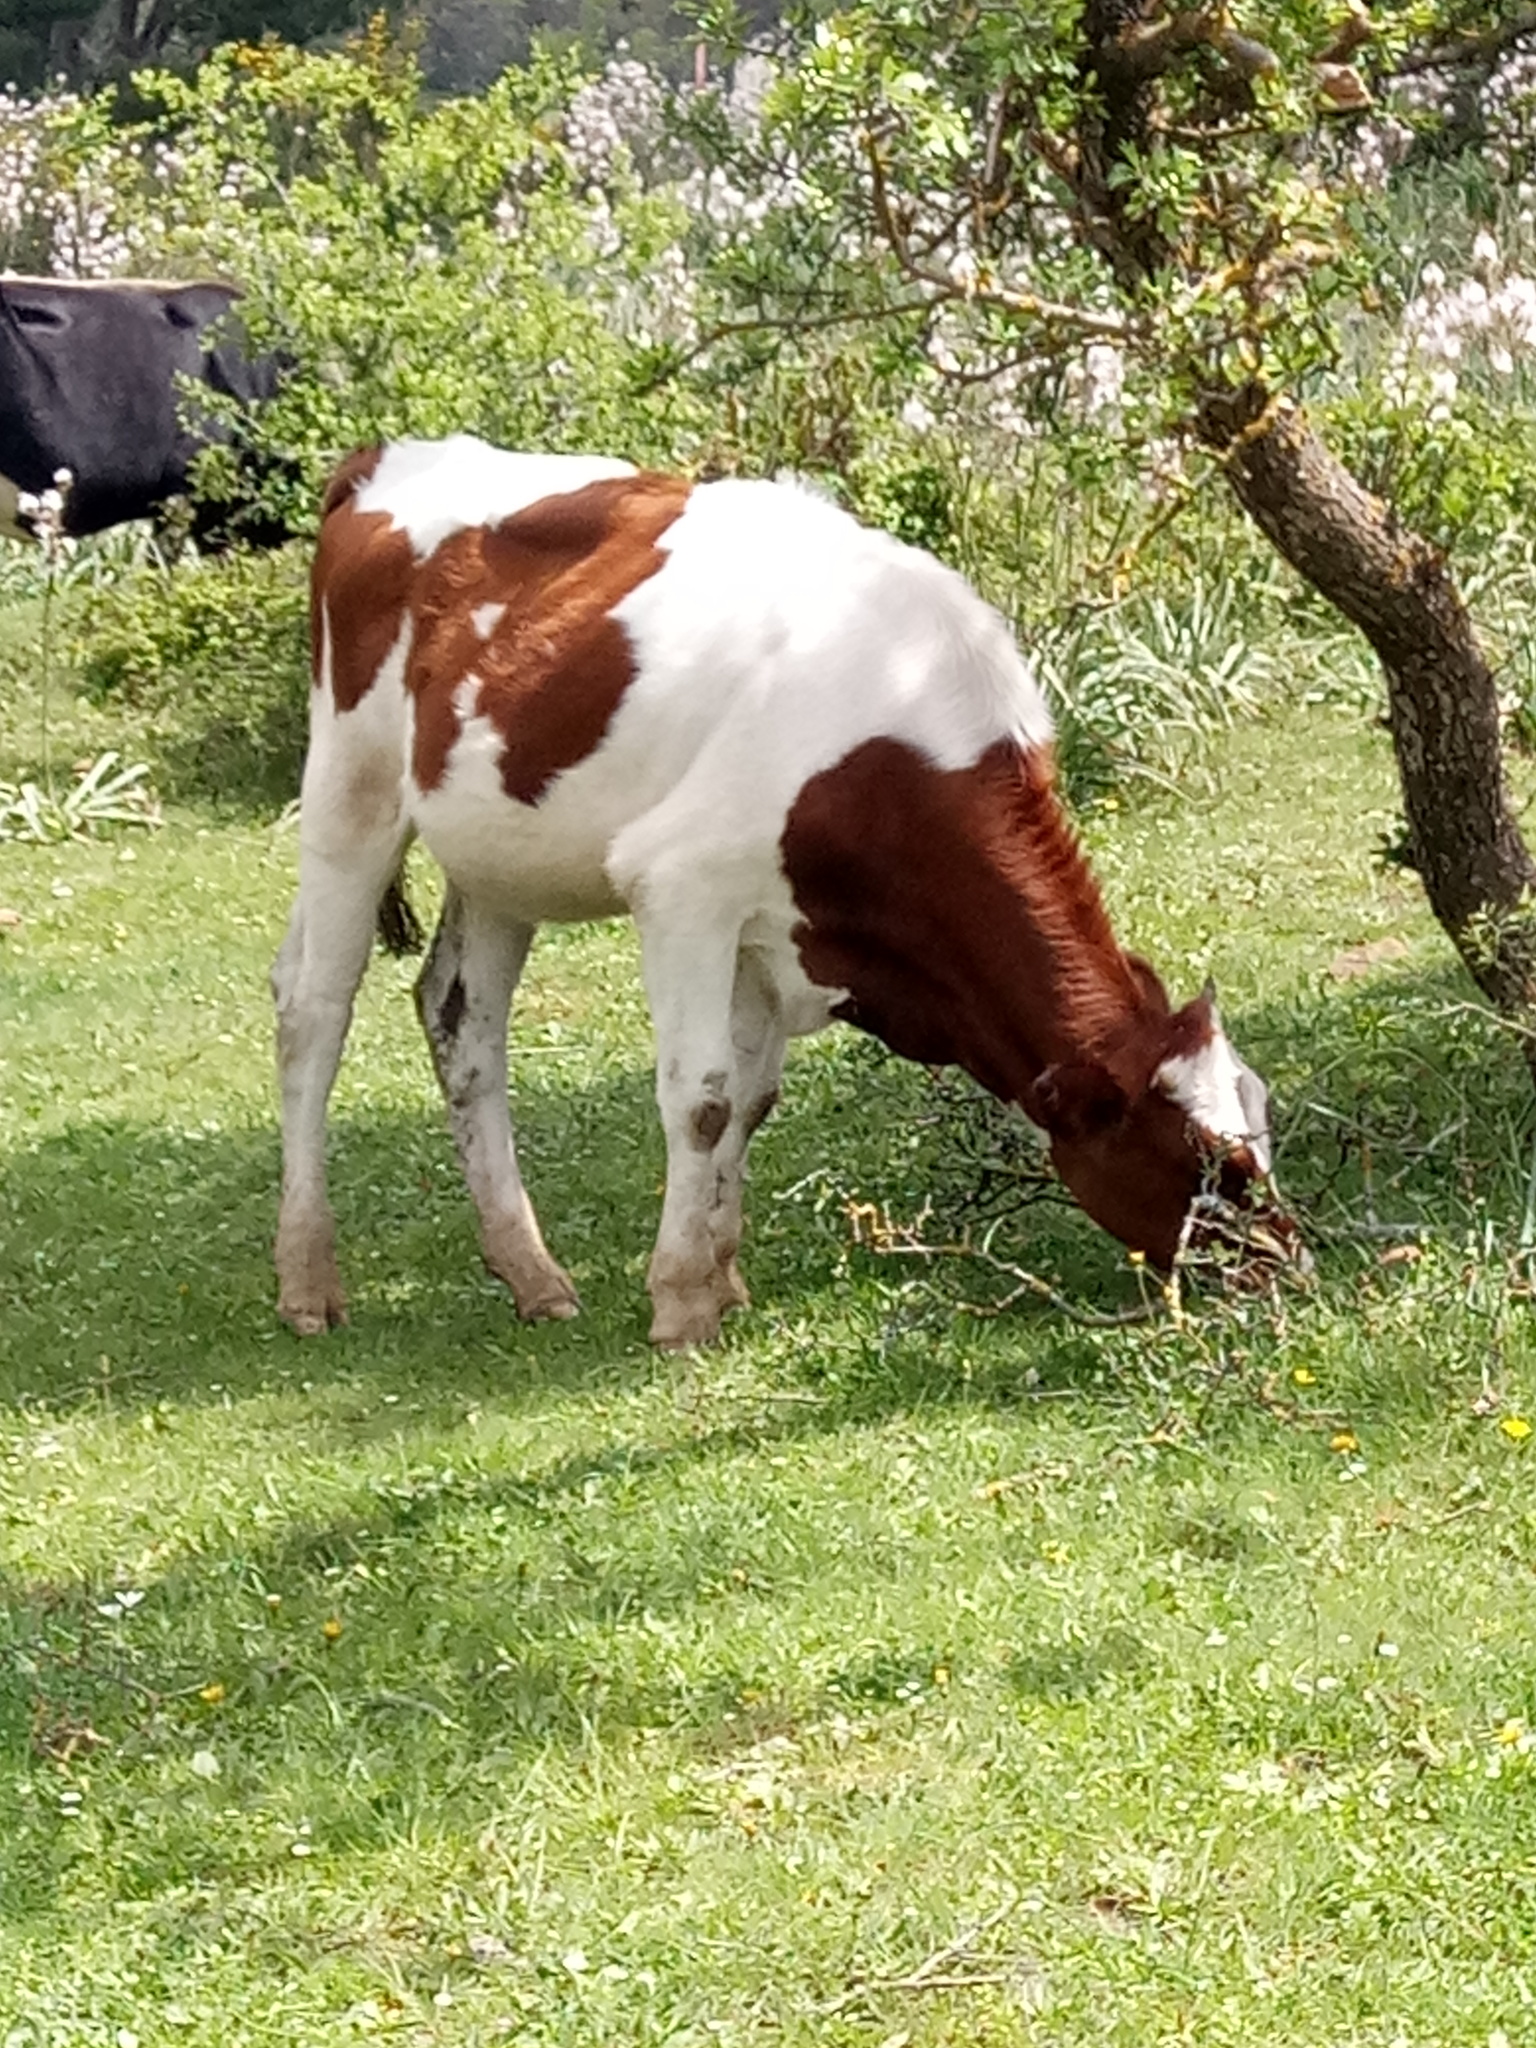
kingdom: Animalia
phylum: Chordata
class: Mammalia
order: Artiodactyla
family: Bovidae
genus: Bos
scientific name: Bos taurus
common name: Domesticated cattle
